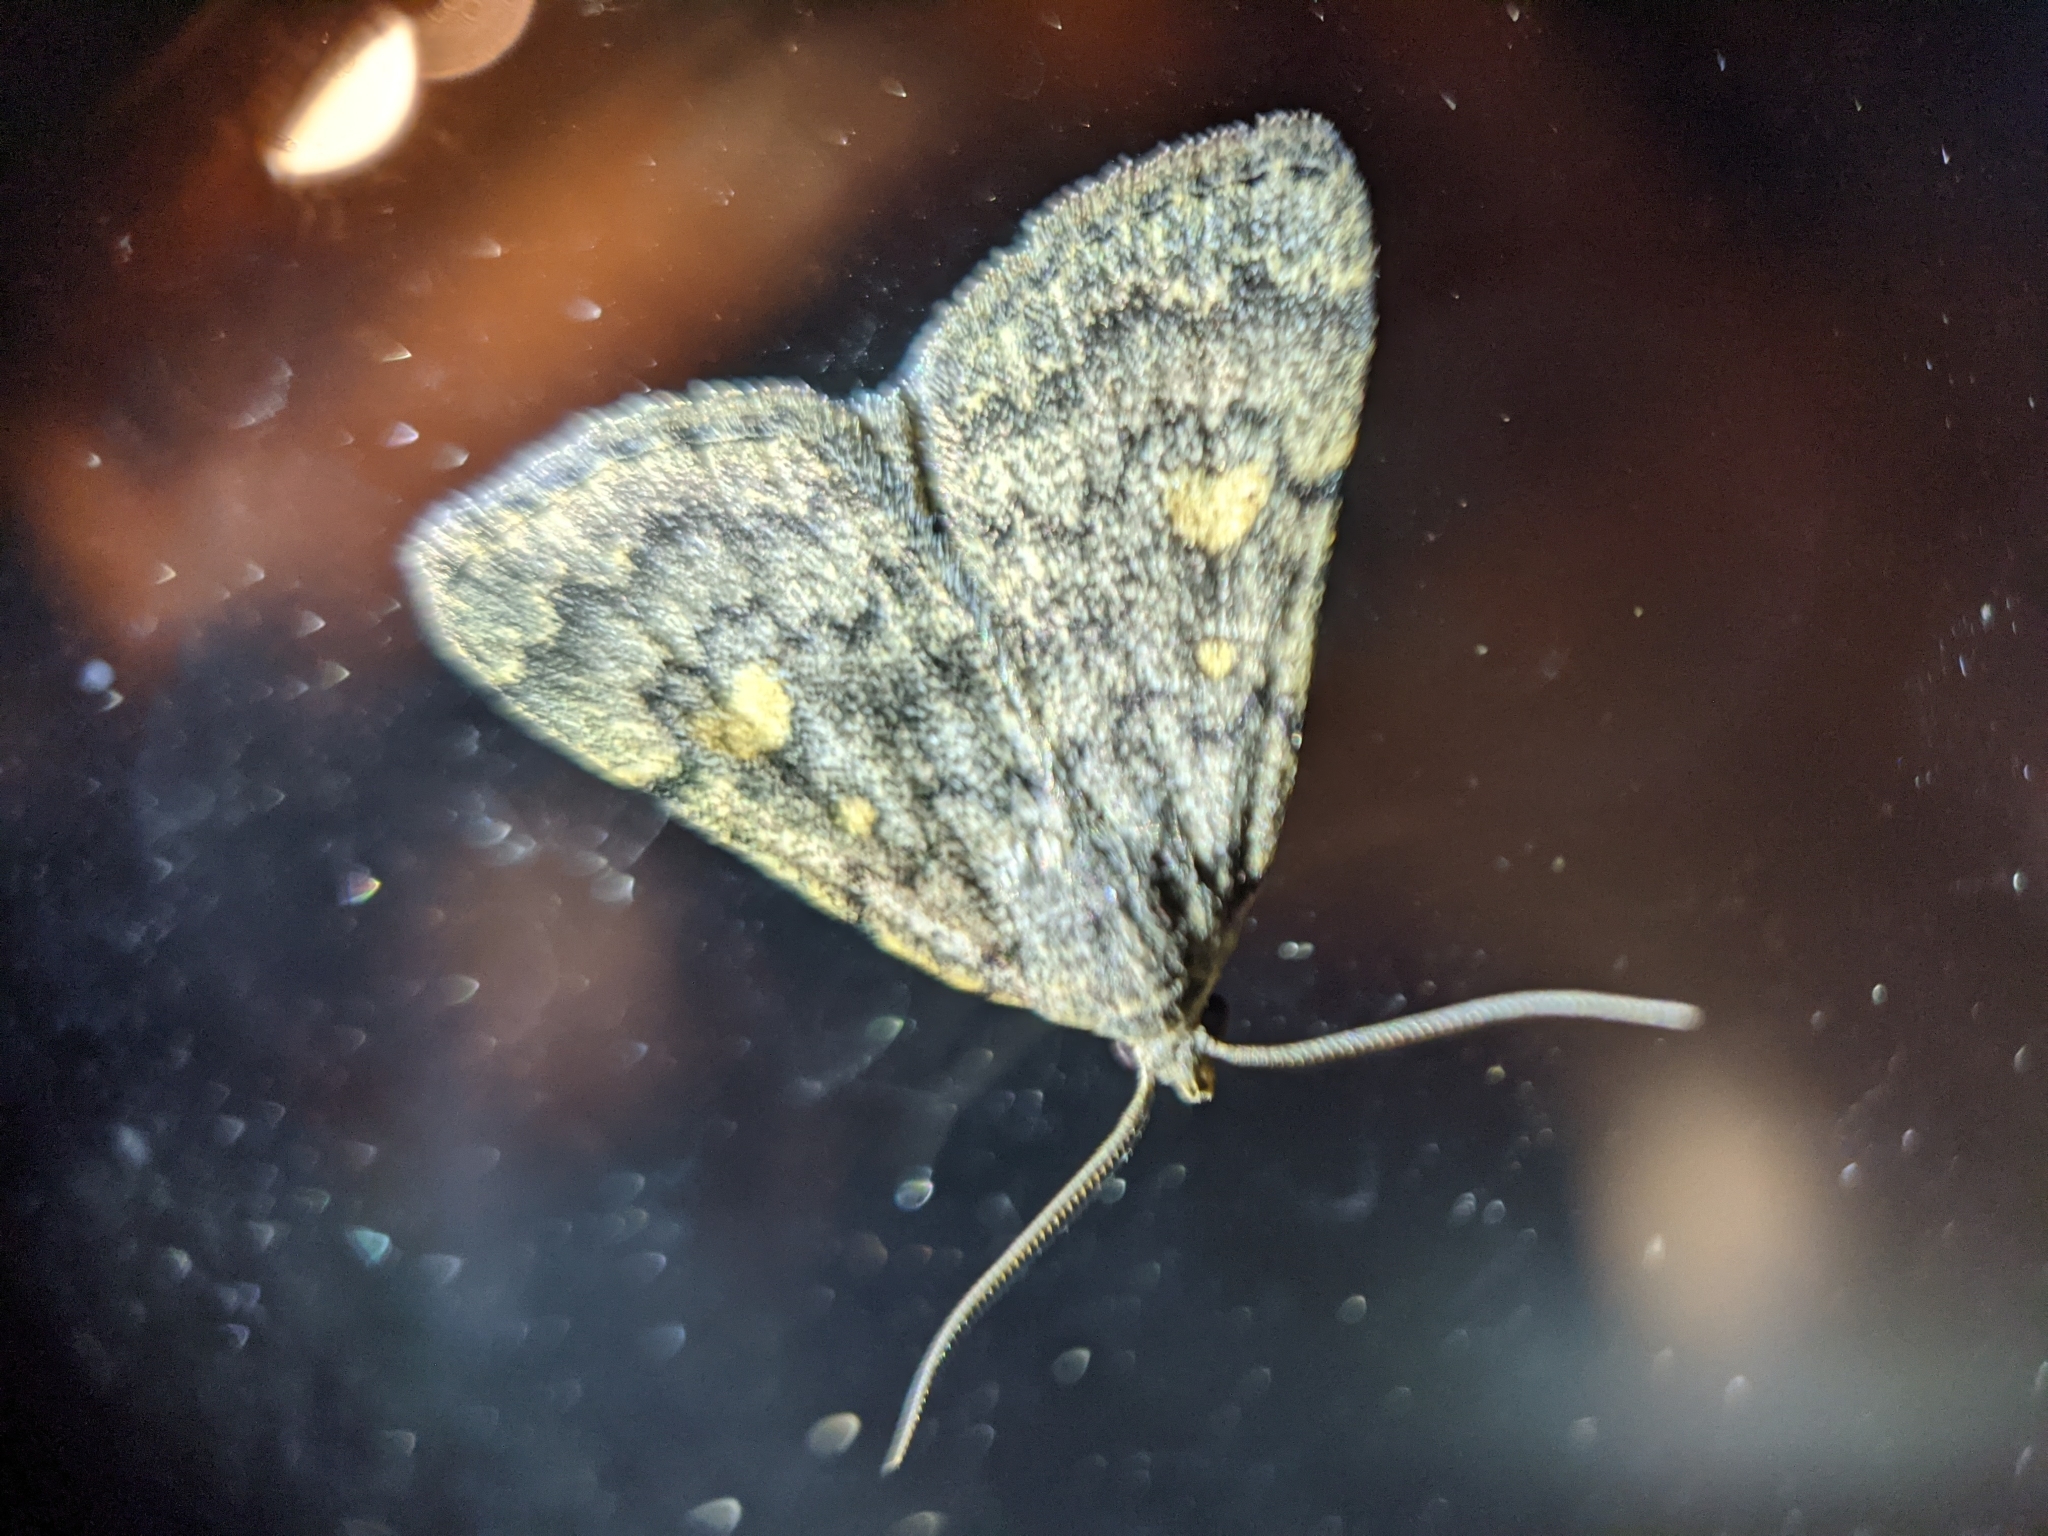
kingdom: Animalia
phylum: Arthropoda
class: Insecta
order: Lepidoptera
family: Erebidae
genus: Idia
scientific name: Idia aemula
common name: Common idia moth
